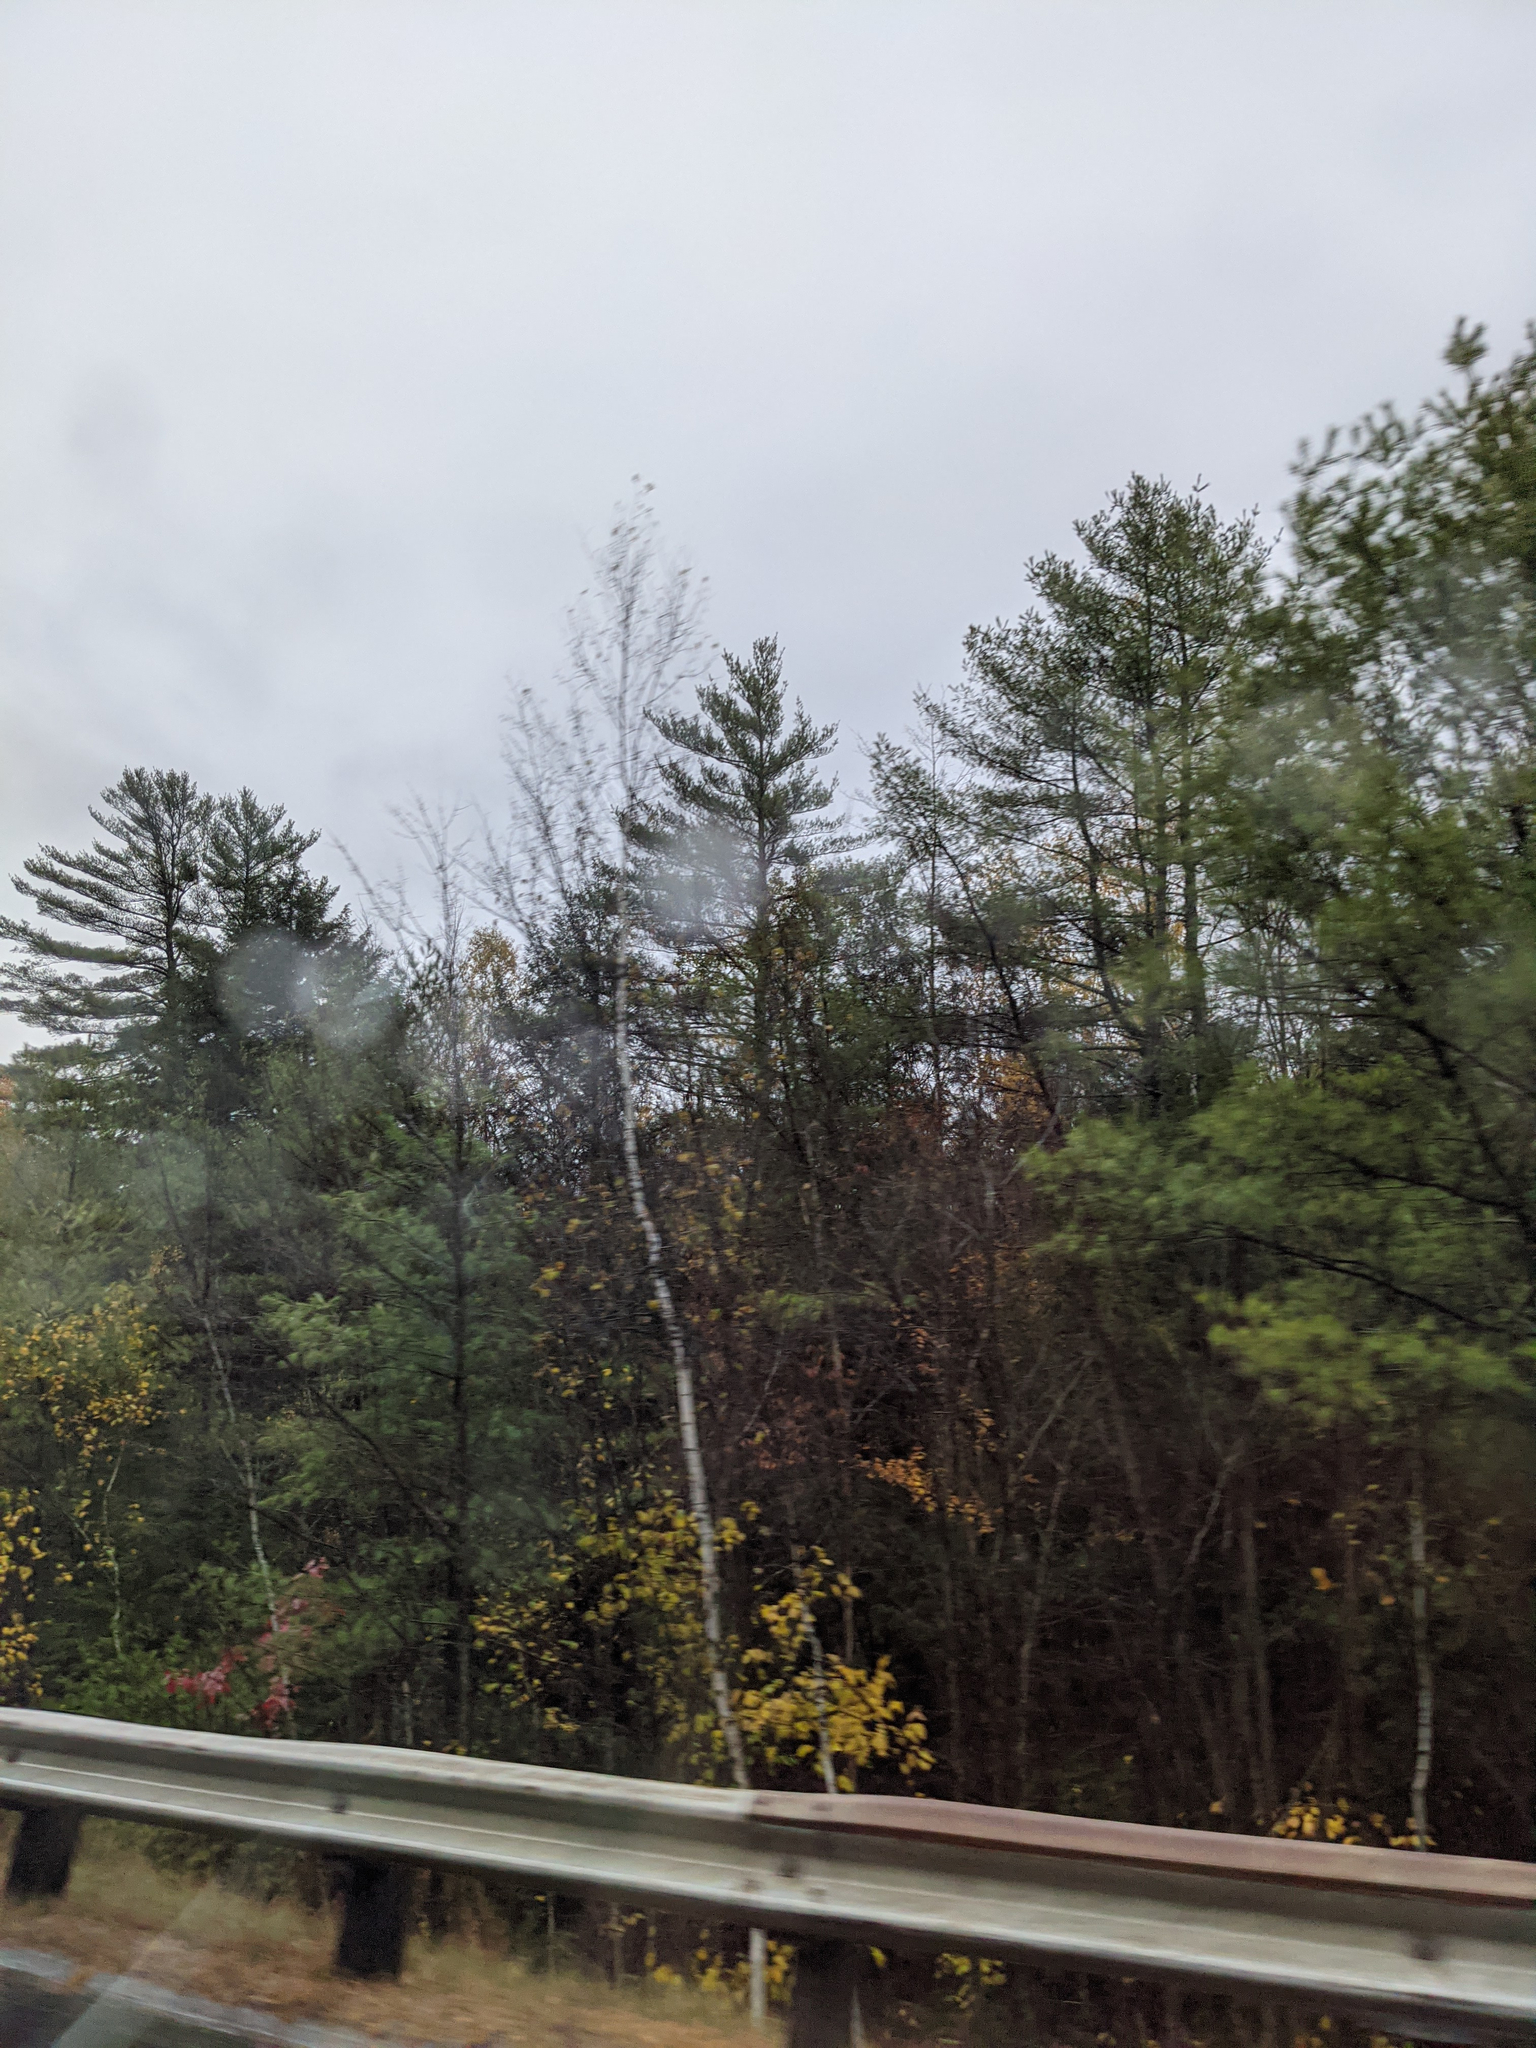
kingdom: Plantae
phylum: Tracheophyta
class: Pinopsida
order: Pinales
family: Pinaceae
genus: Pinus
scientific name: Pinus strobus
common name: Weymouth pine
